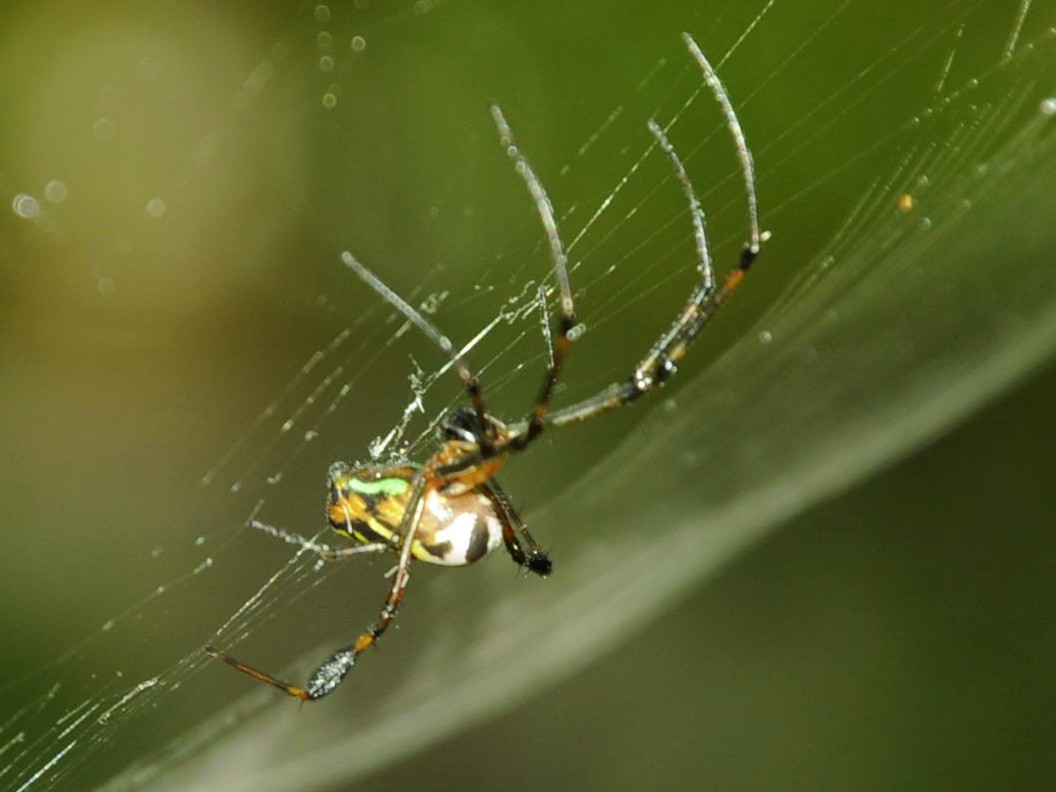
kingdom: Animalia
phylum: Arthropoda
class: Arachnida
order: Araneae
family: Tetragnathidae
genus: Leucauge
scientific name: Leucauge tessellata
